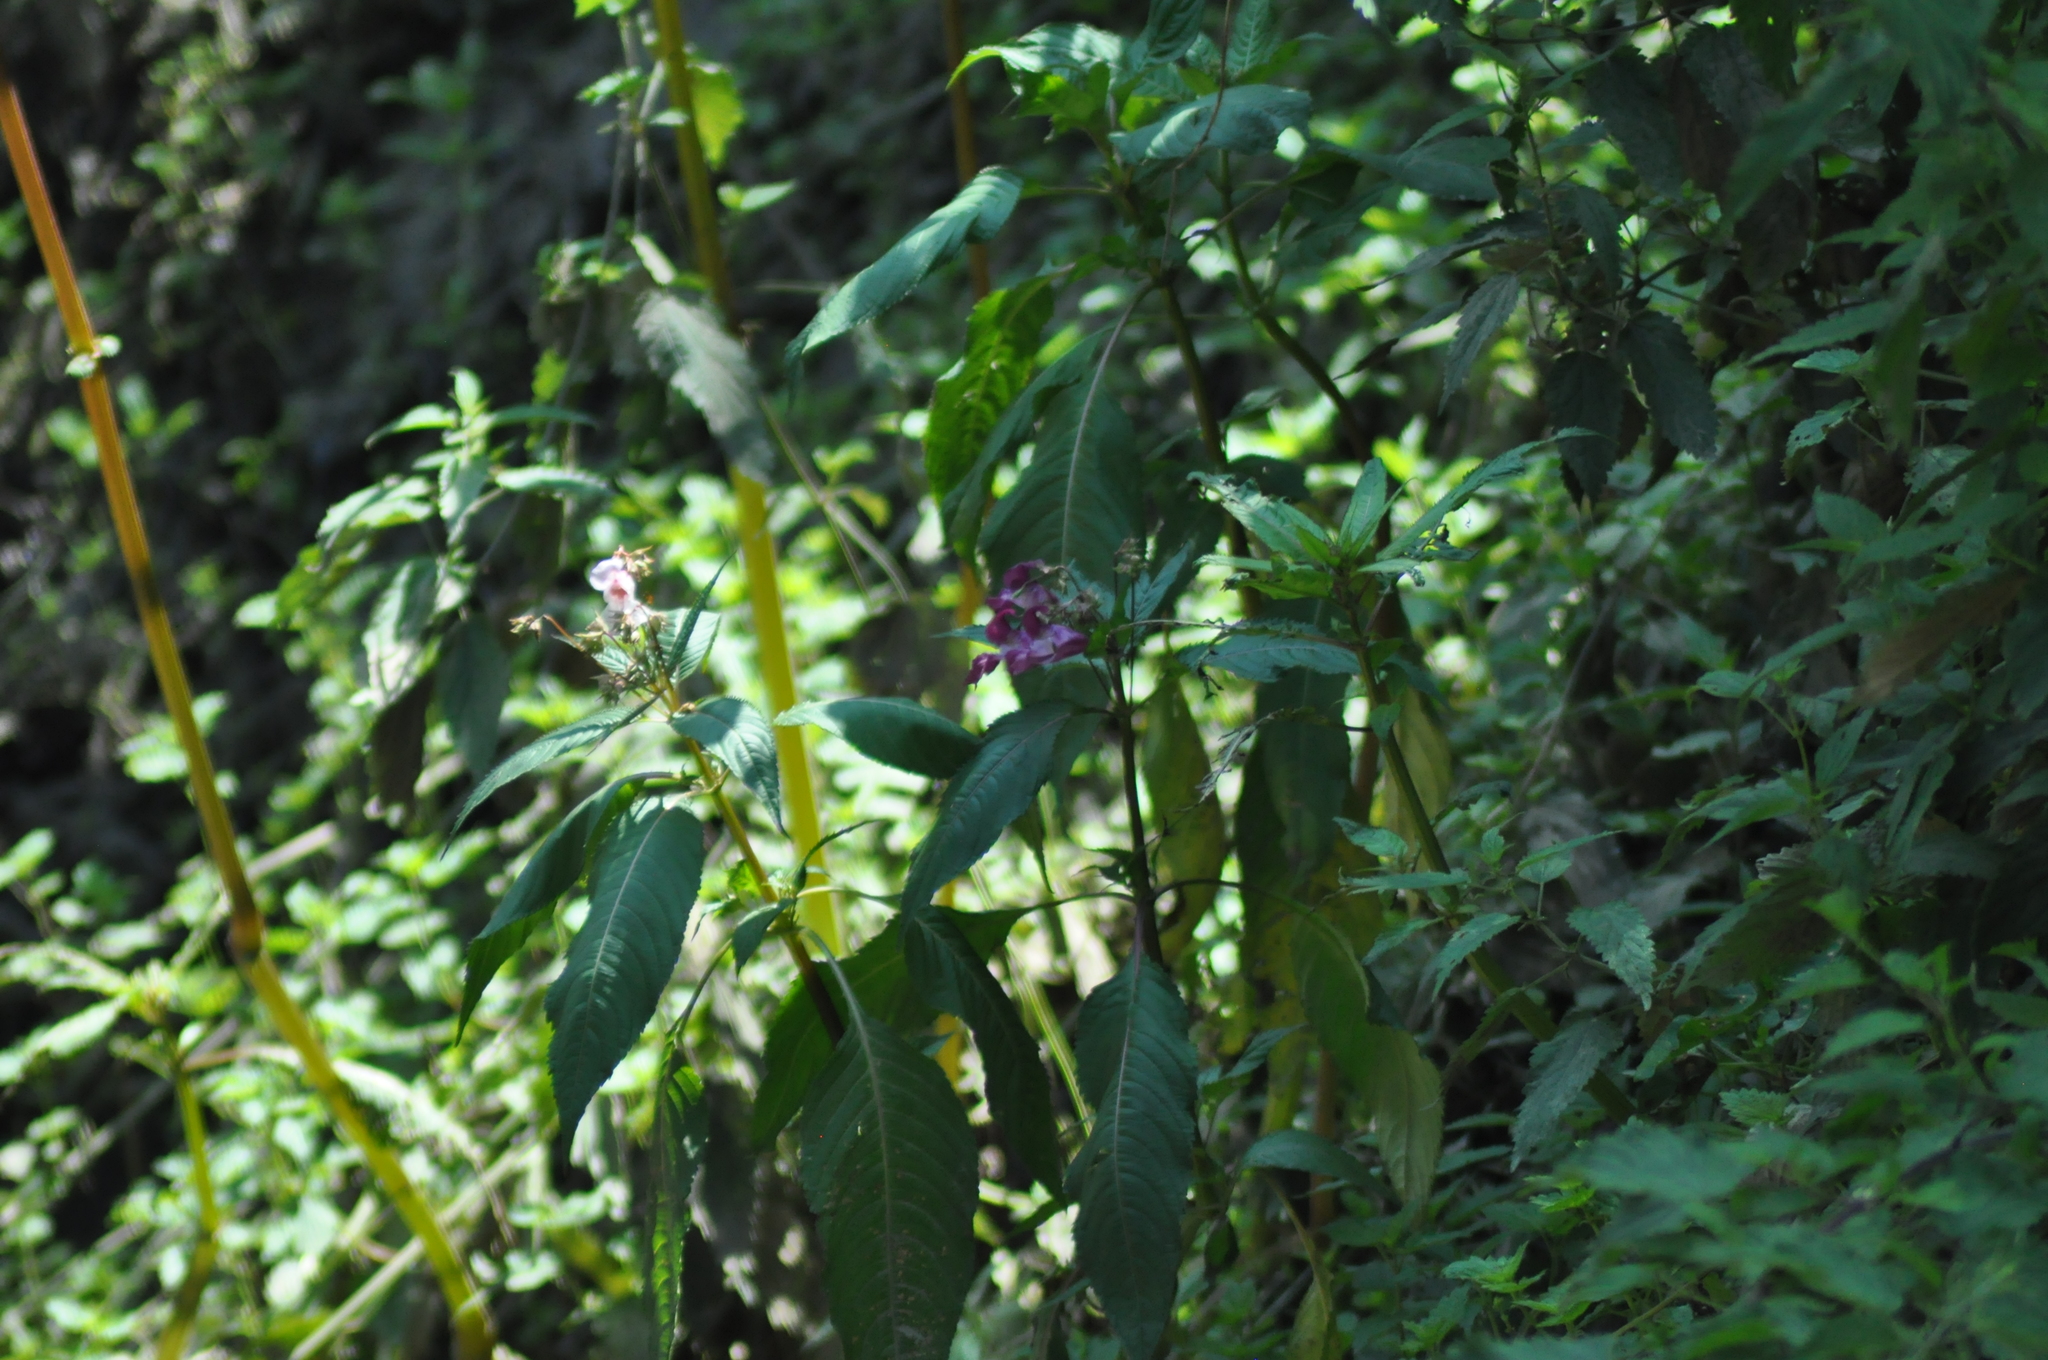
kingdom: Plantae
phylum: Tracheophyta
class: Magnoliopsida
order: Ericales
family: Balsaminaceae
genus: Impatiens
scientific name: Impatiens glandulifera
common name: Himalayan balsam
